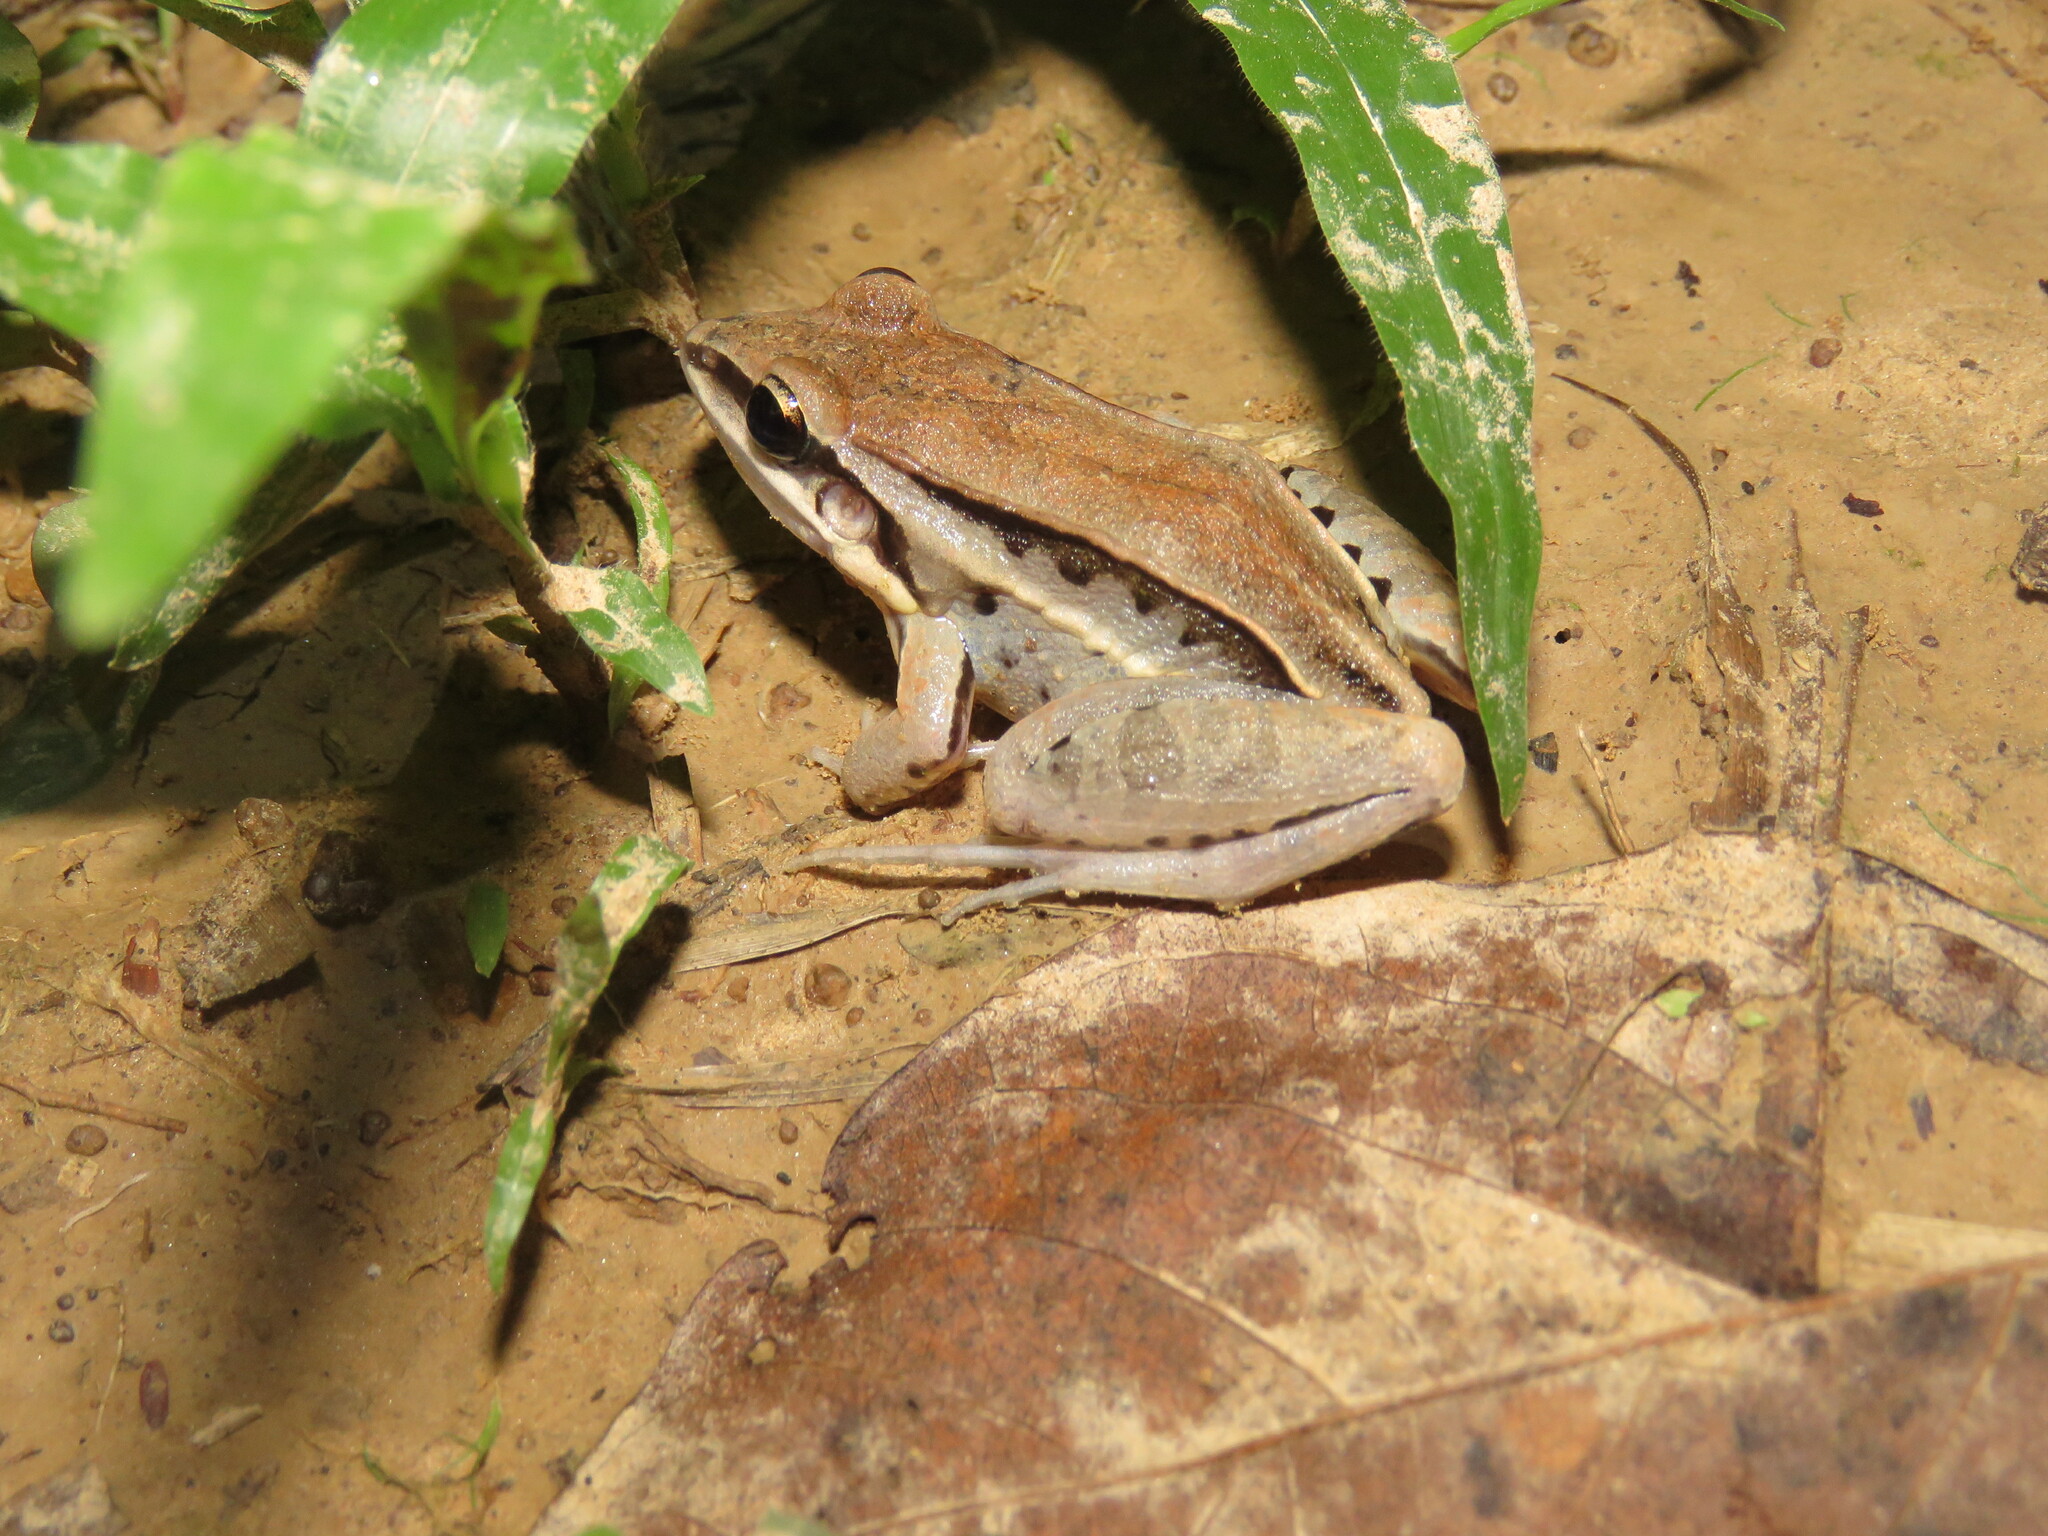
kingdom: Animalia
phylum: Chordata
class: Amphibia
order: Anura
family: Leptodactylidae
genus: Leptodactylus
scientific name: Leptodactylus elenae
